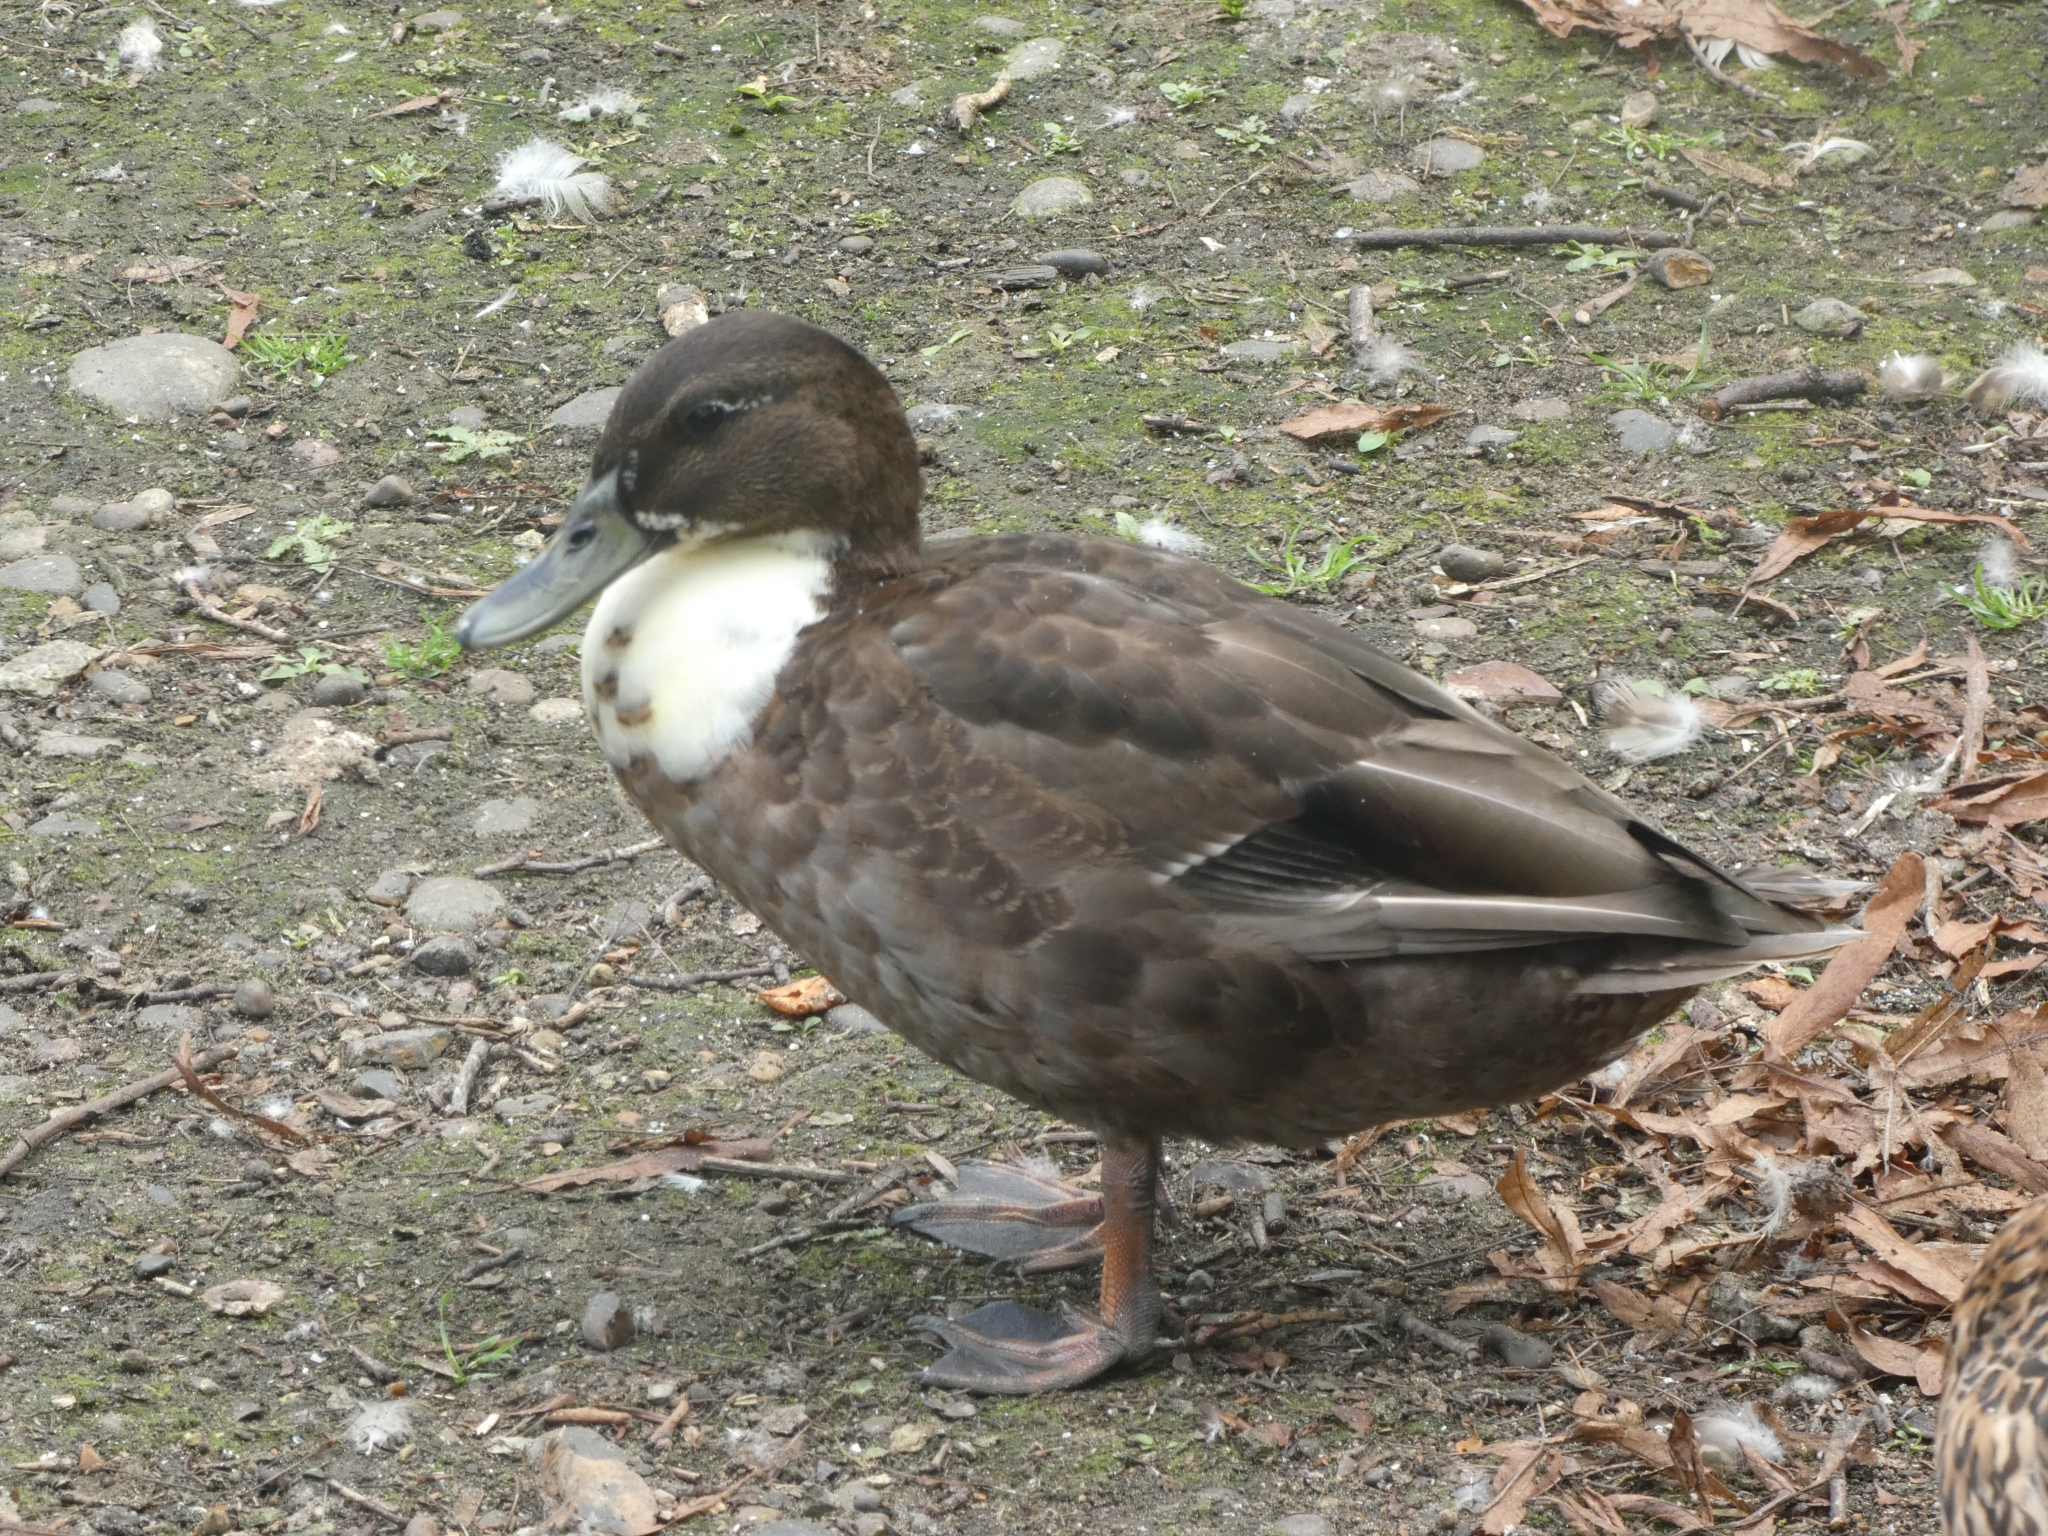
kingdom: Animalia
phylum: Chordata
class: Aves
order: Anseriformes
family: Anatidae
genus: Anas
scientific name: Anas platyrhynchos
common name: Mallard
